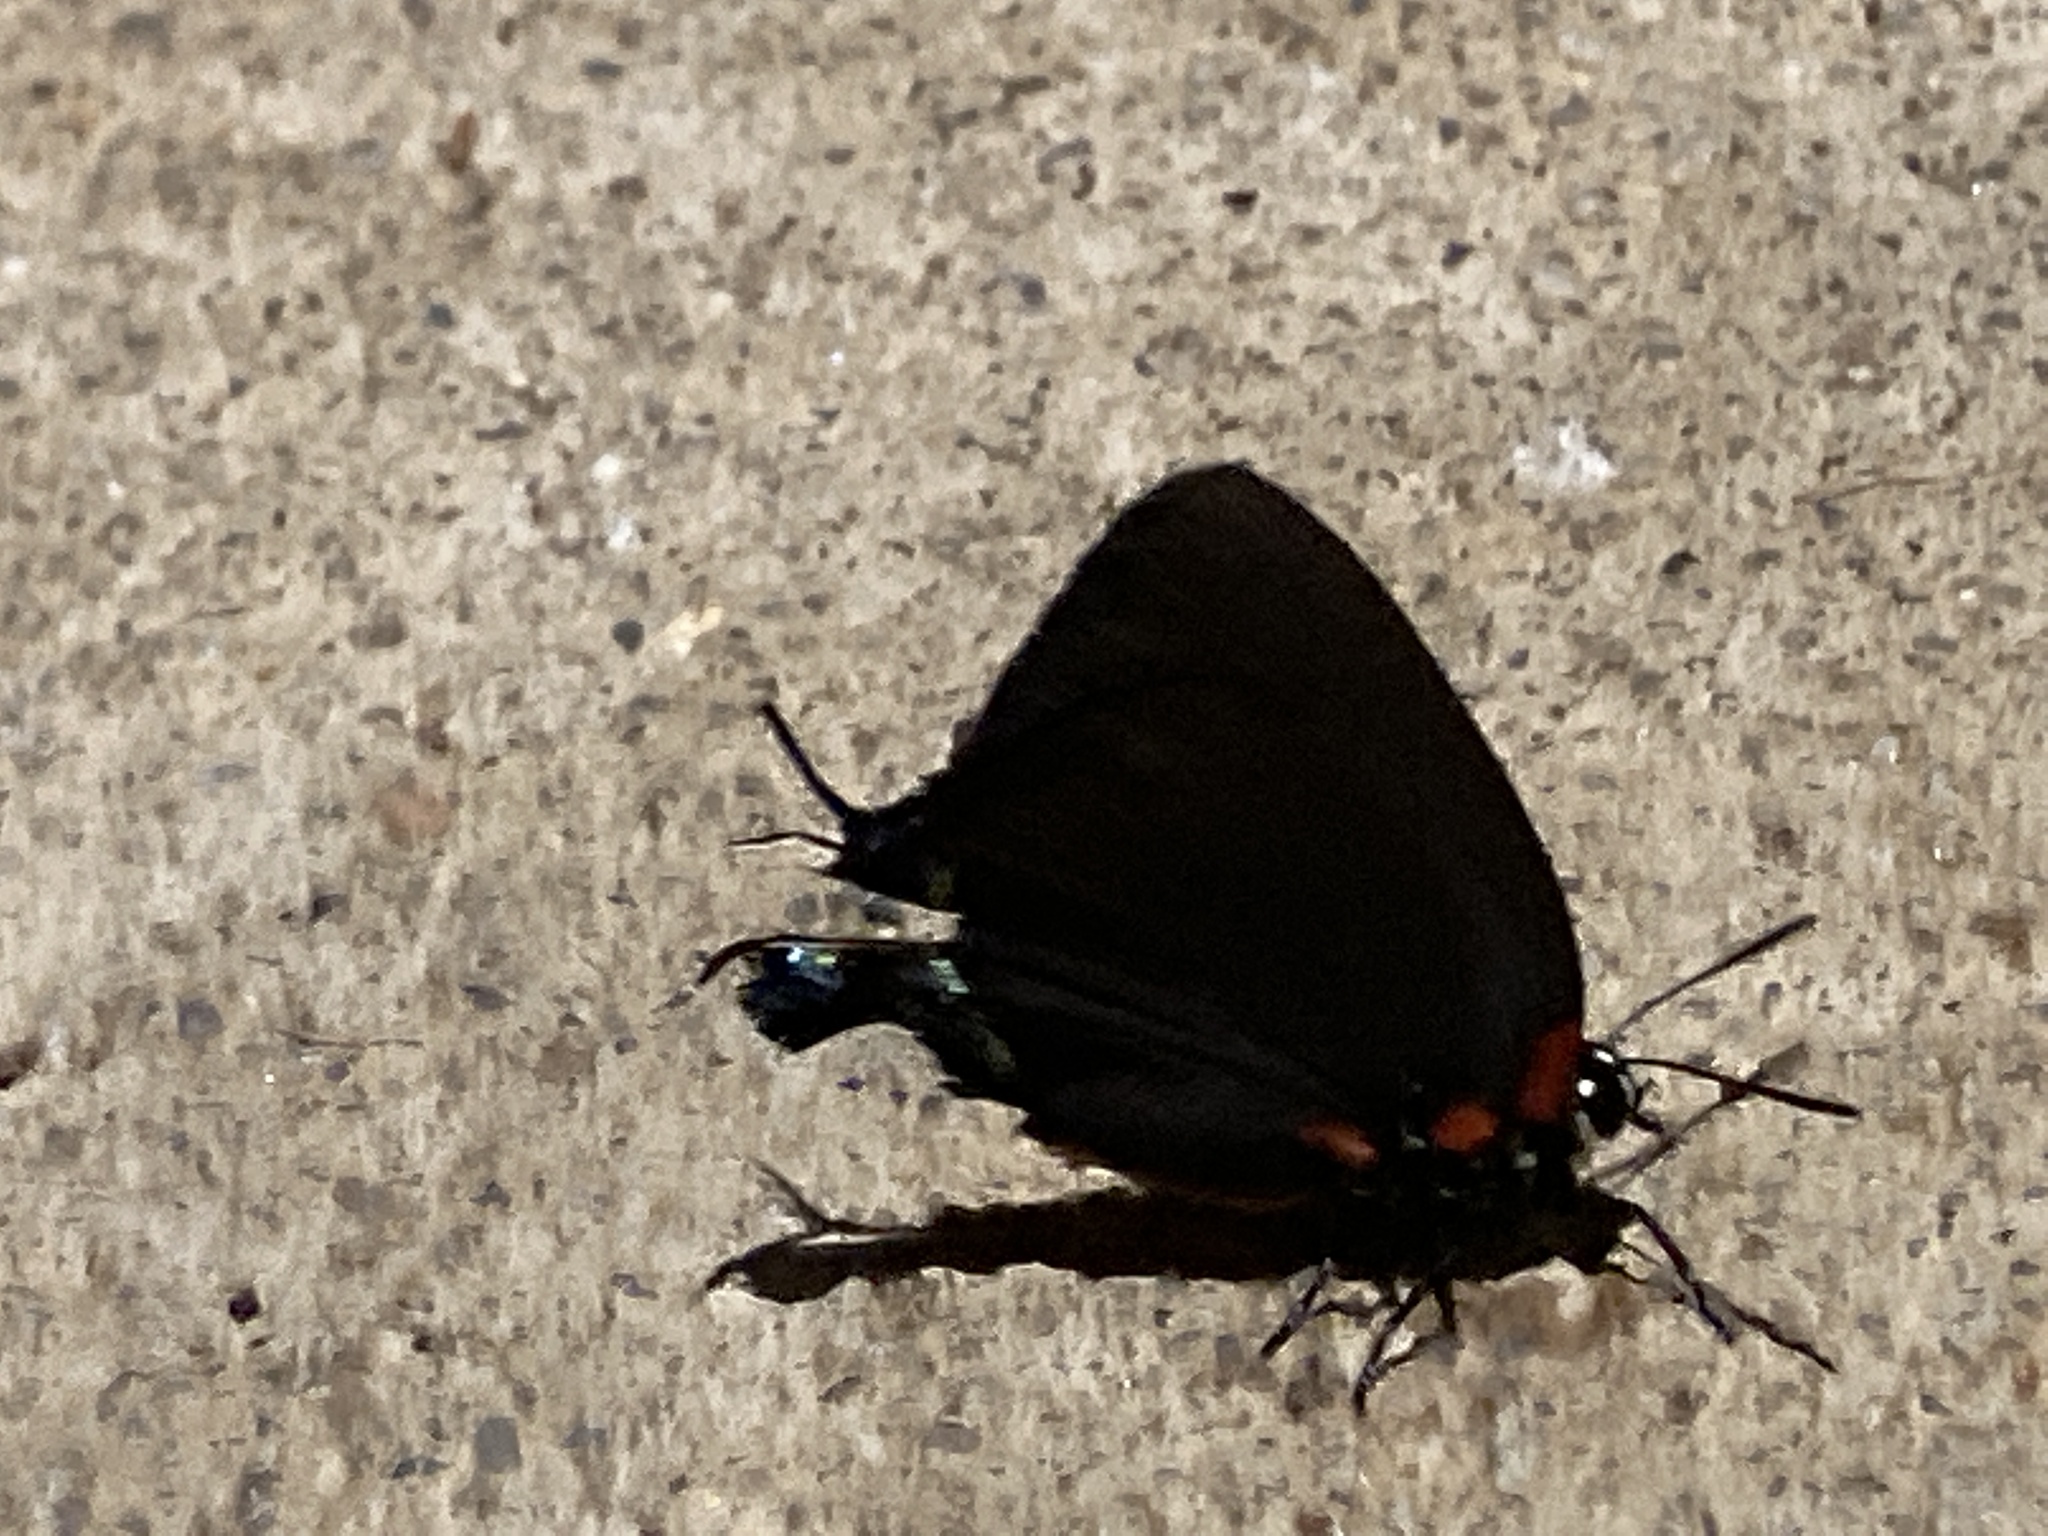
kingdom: Animalia
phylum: Arthropoda
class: Insecta
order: Lepidoptera
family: Lycaenidae
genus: Atlides
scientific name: Atlides halesus
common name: Great purple hairstreak
